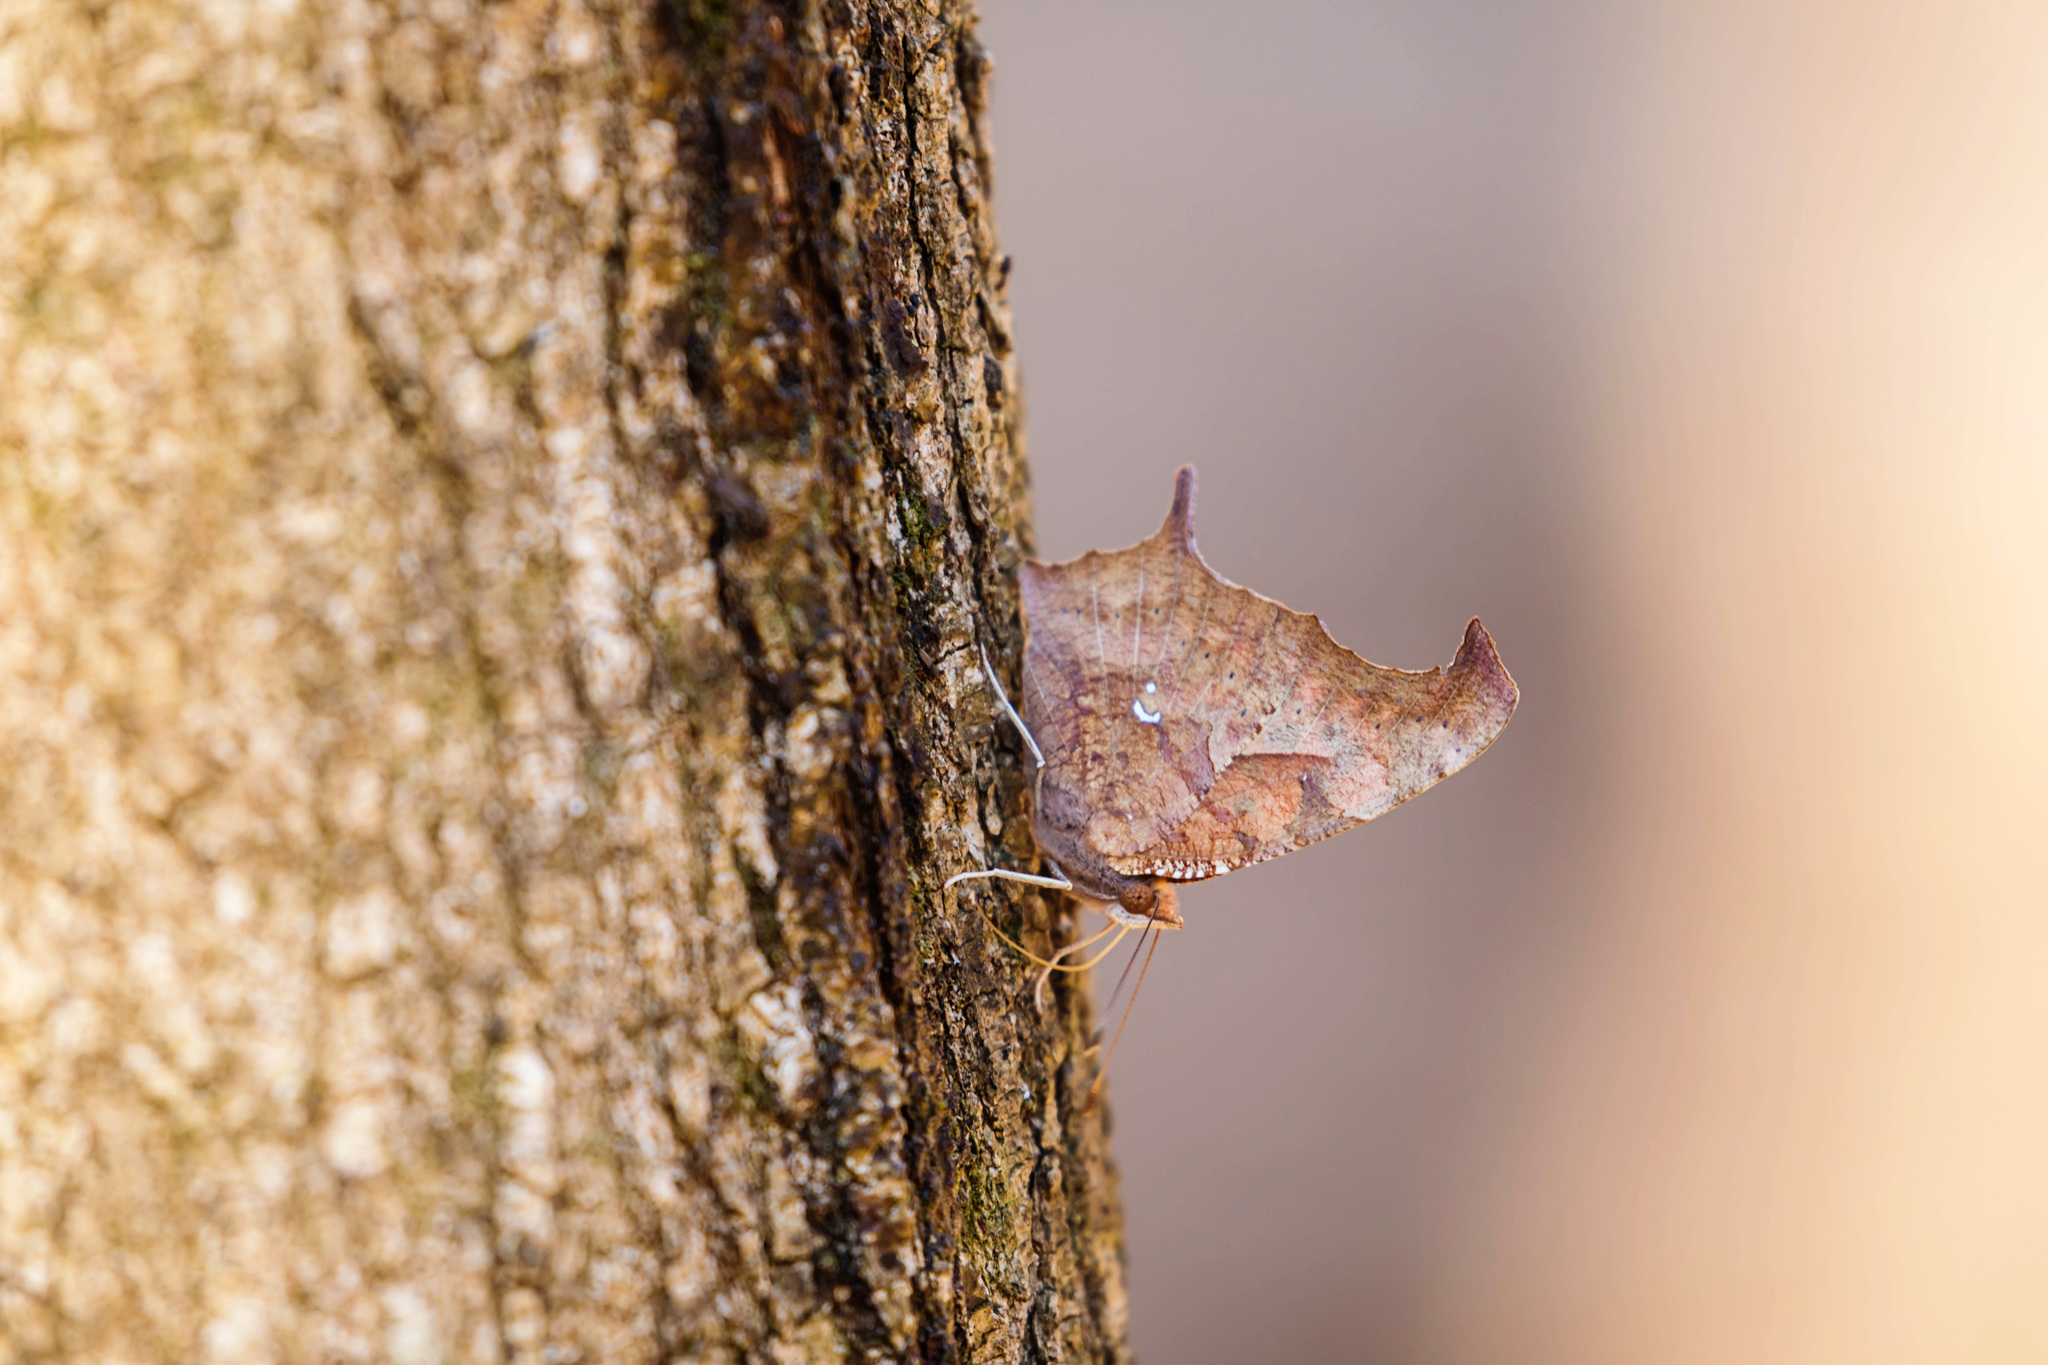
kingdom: Animalia
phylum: Arthropoda
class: Insecta
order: Lepidoptera
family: Nymphalidae
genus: Polygonia
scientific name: Polygonia interrogationis
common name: Question mark
